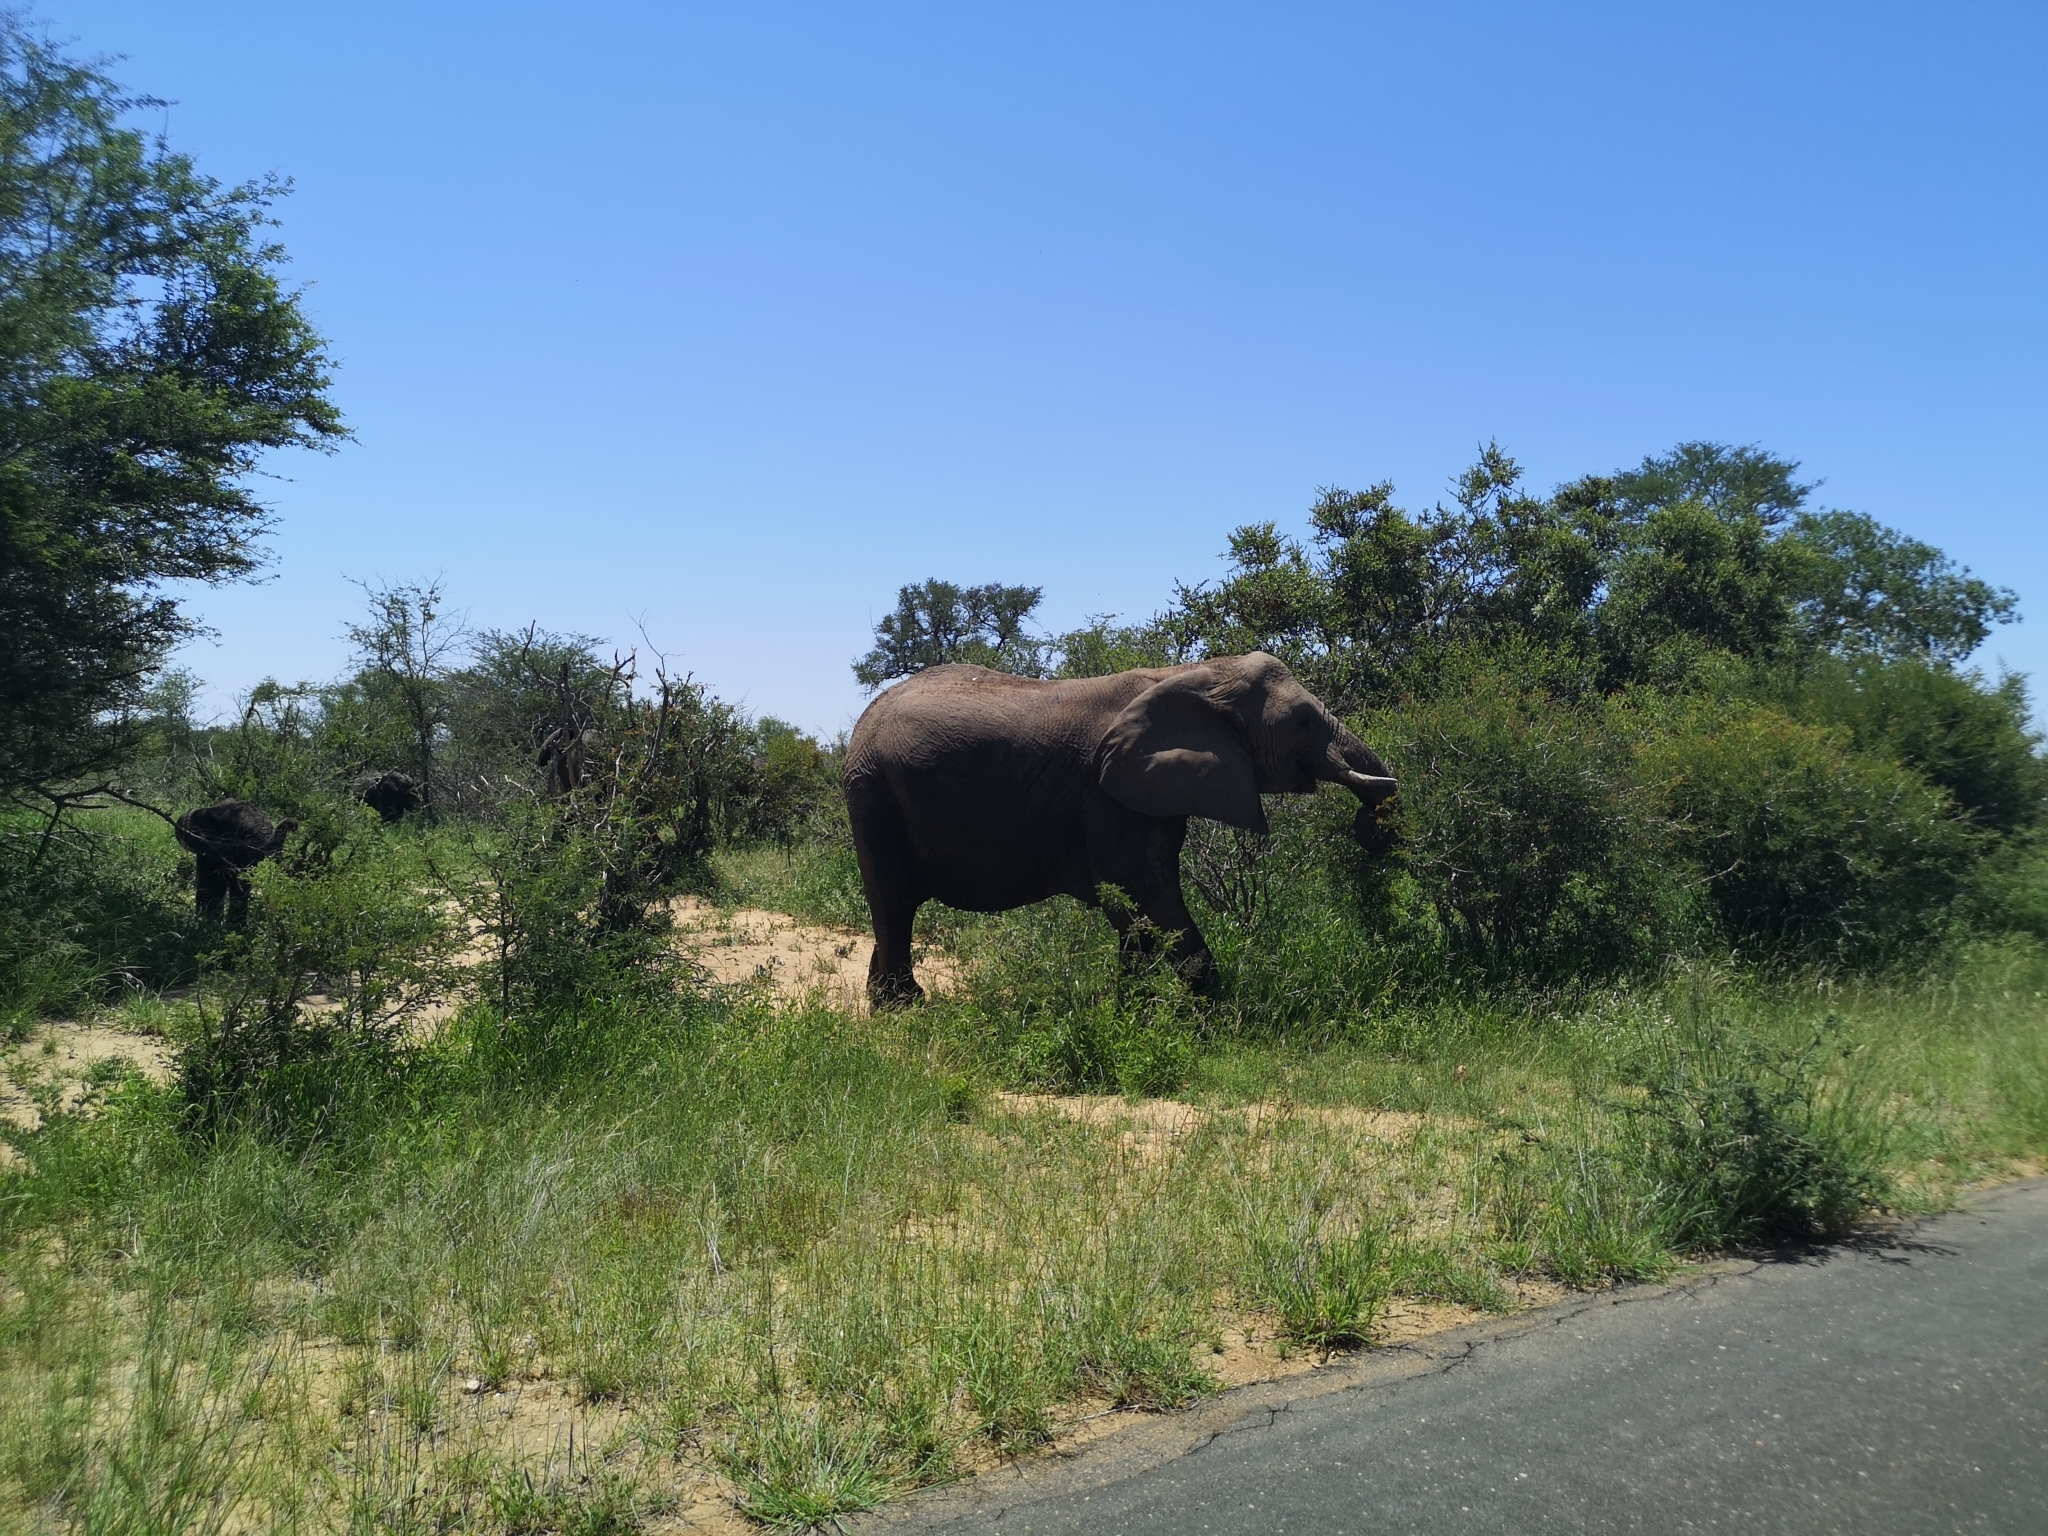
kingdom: Animalia
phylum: Chordata
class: Mammalia
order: Proboscidea
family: Elephantidae
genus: Loxodonta
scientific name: Loxodonta africana
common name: African elephant
